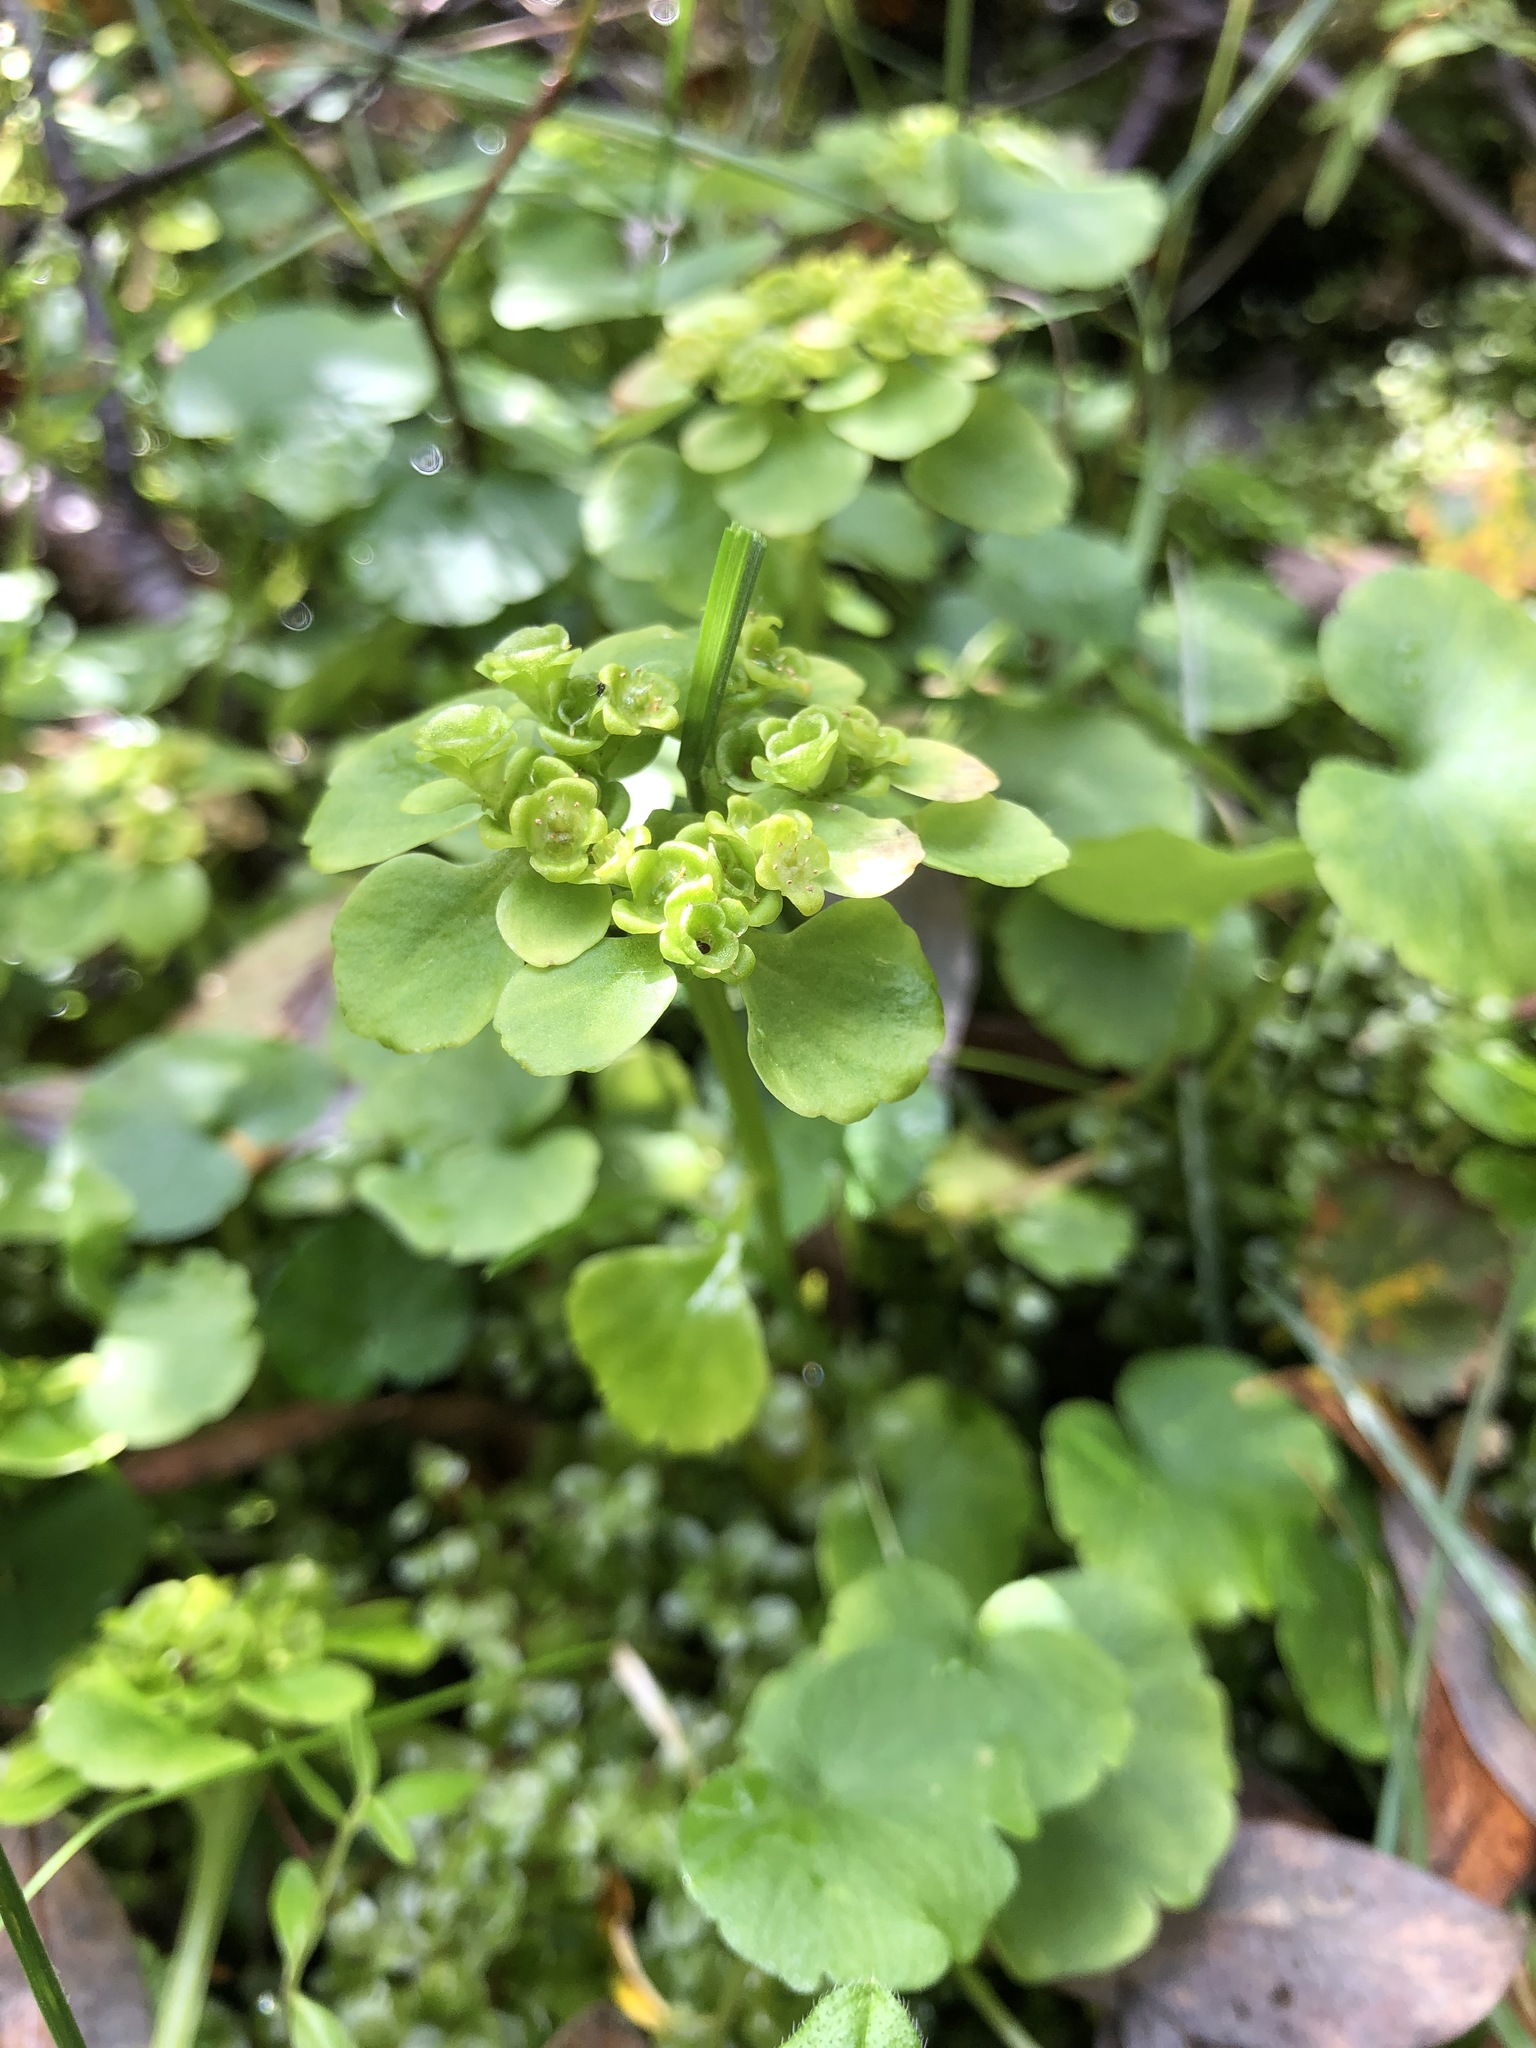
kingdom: Plantae
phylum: Tracheophyta
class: Magnoliopsida
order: Saxifragales
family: Saxifragaceae
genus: Chrysosplenium
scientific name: Chrysosplenium sibiricum
